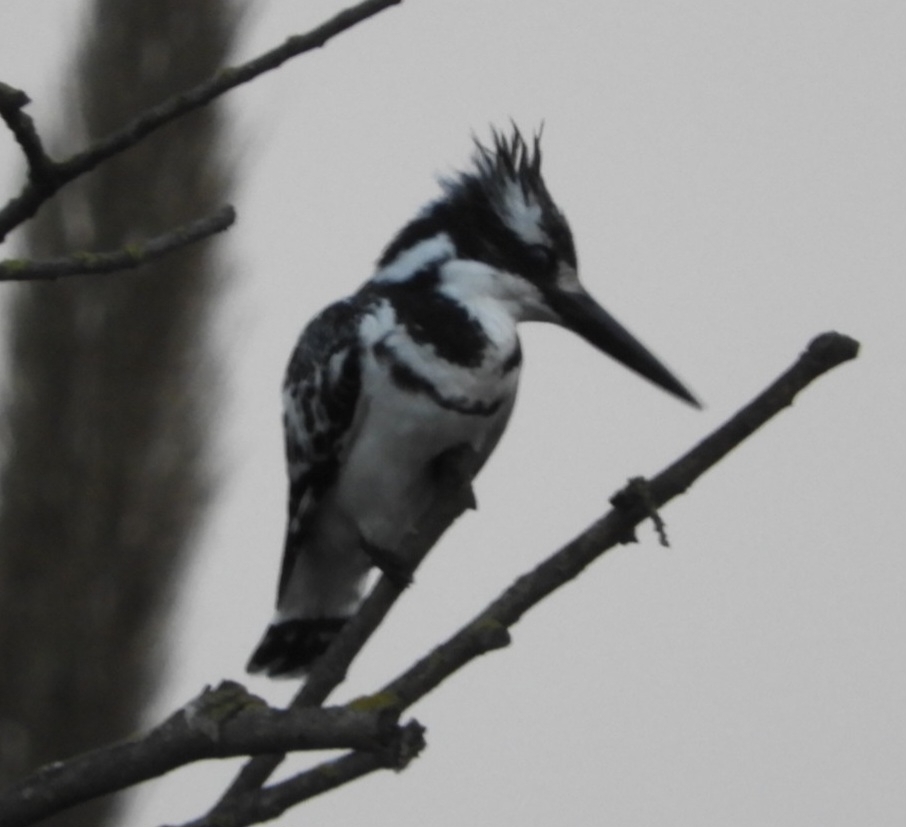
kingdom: Animalia
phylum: Chordata
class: Aves
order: Coraciiformes
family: Alcedinidae
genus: Ceryle
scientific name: Ceryle rudis
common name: Pied kingfisher
